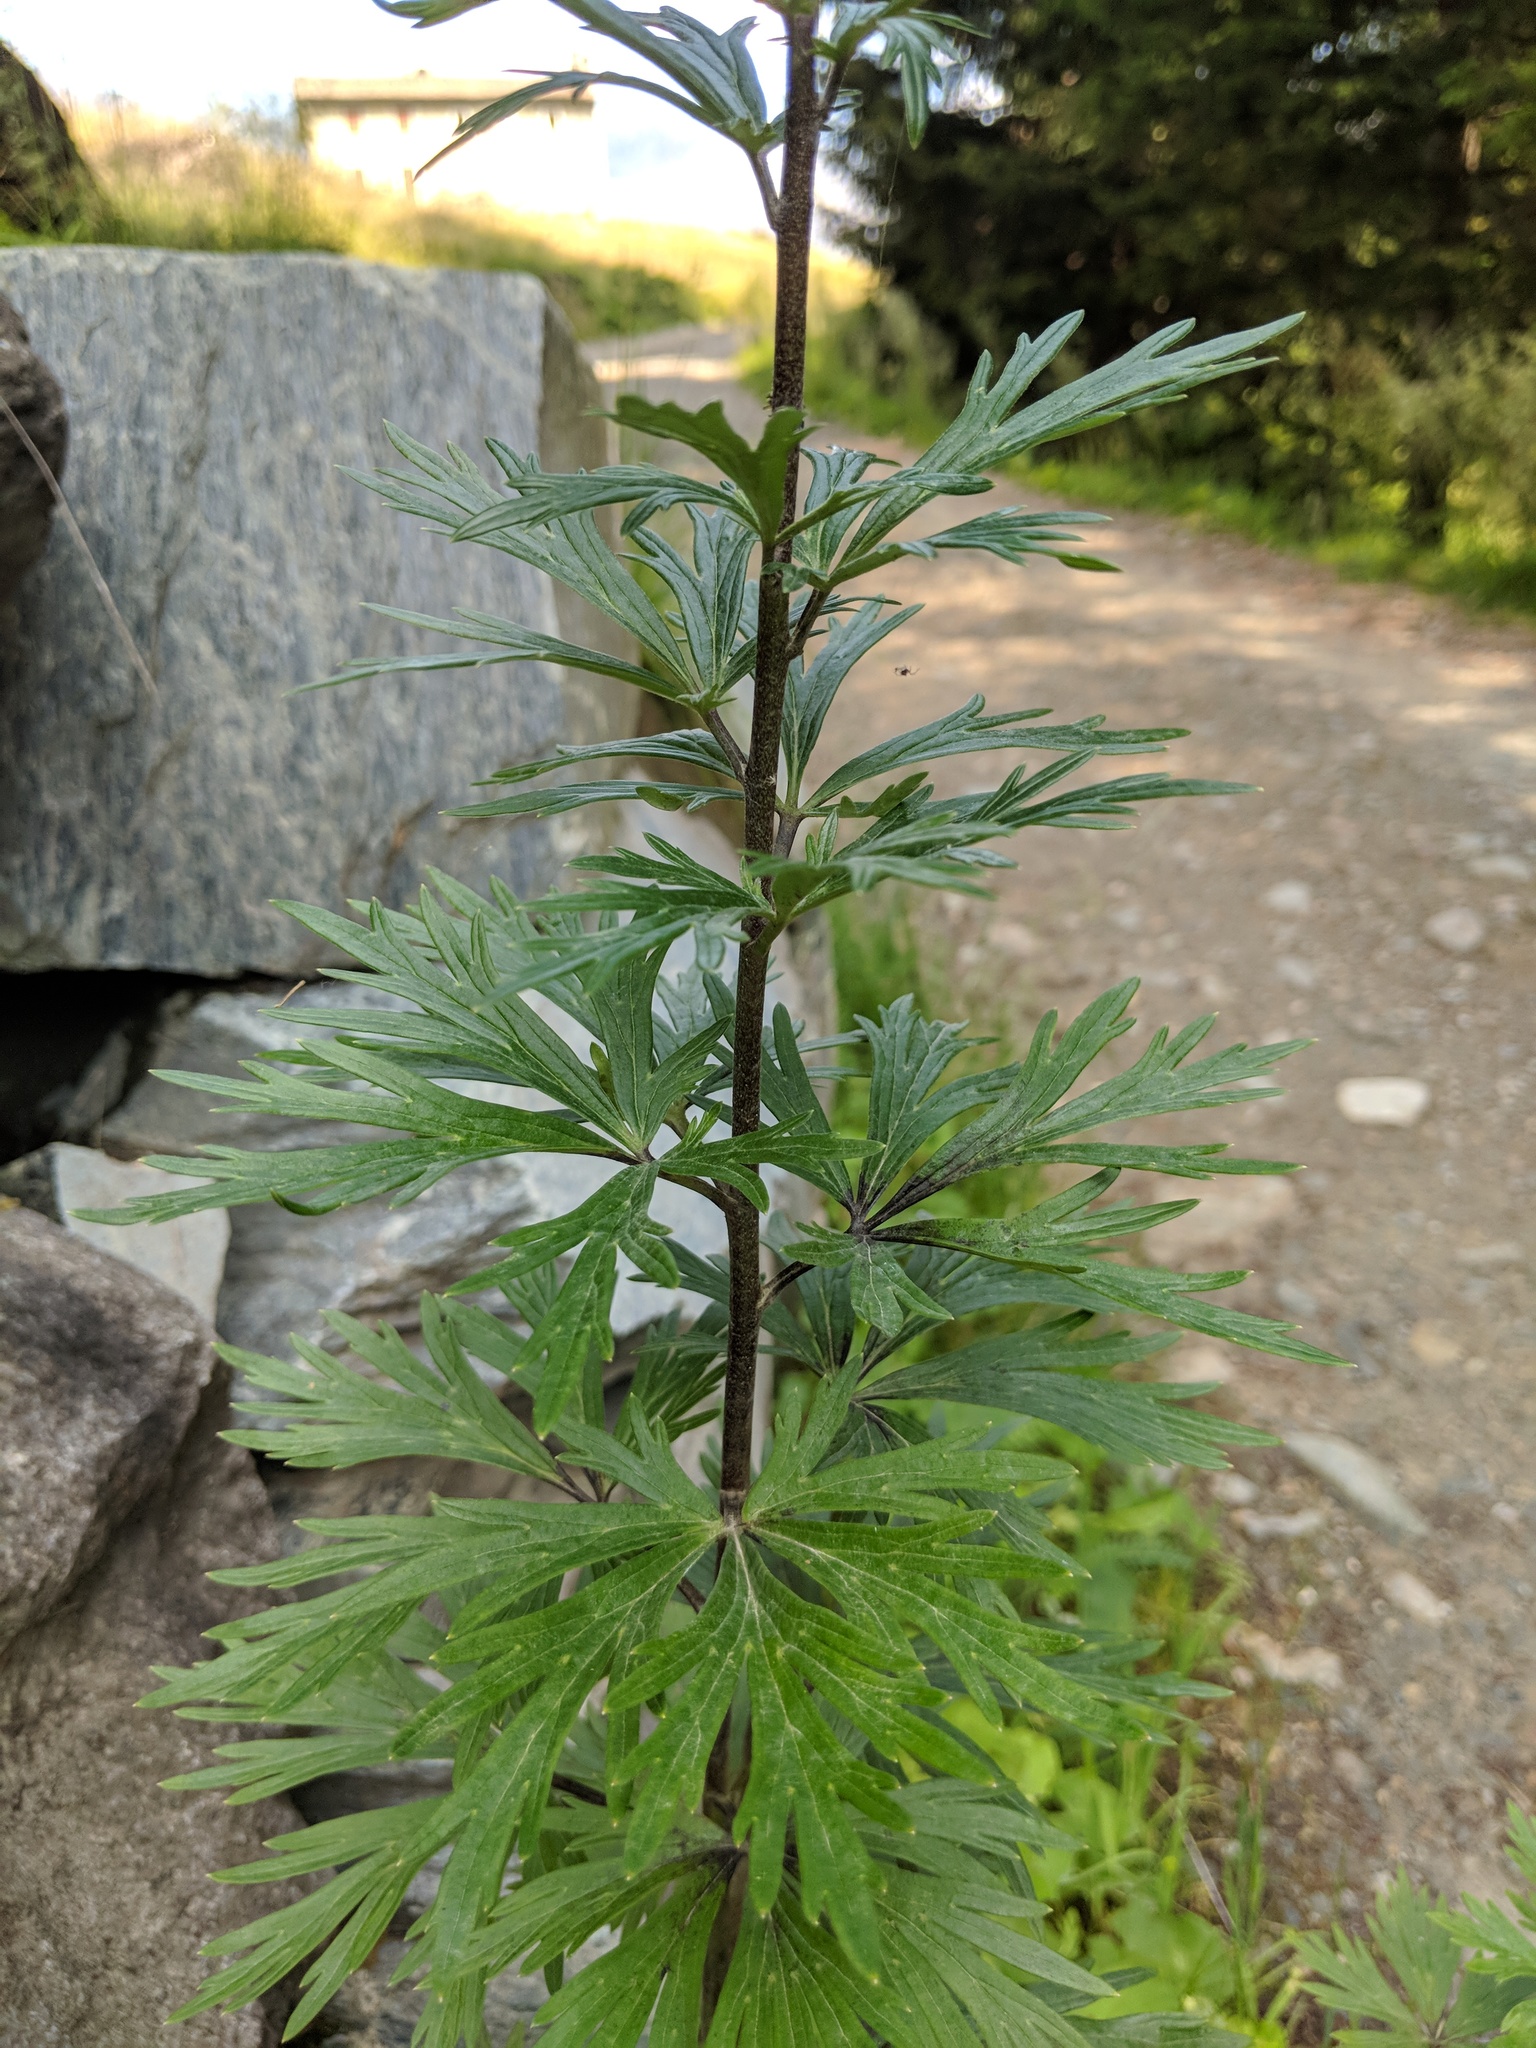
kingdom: Plantae
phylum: Tracheophyta
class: Magnoliopsida
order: Ranunculales
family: Ranunculaceae
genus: Aconitum
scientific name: Aconitum napellus
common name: Garden monkshood
